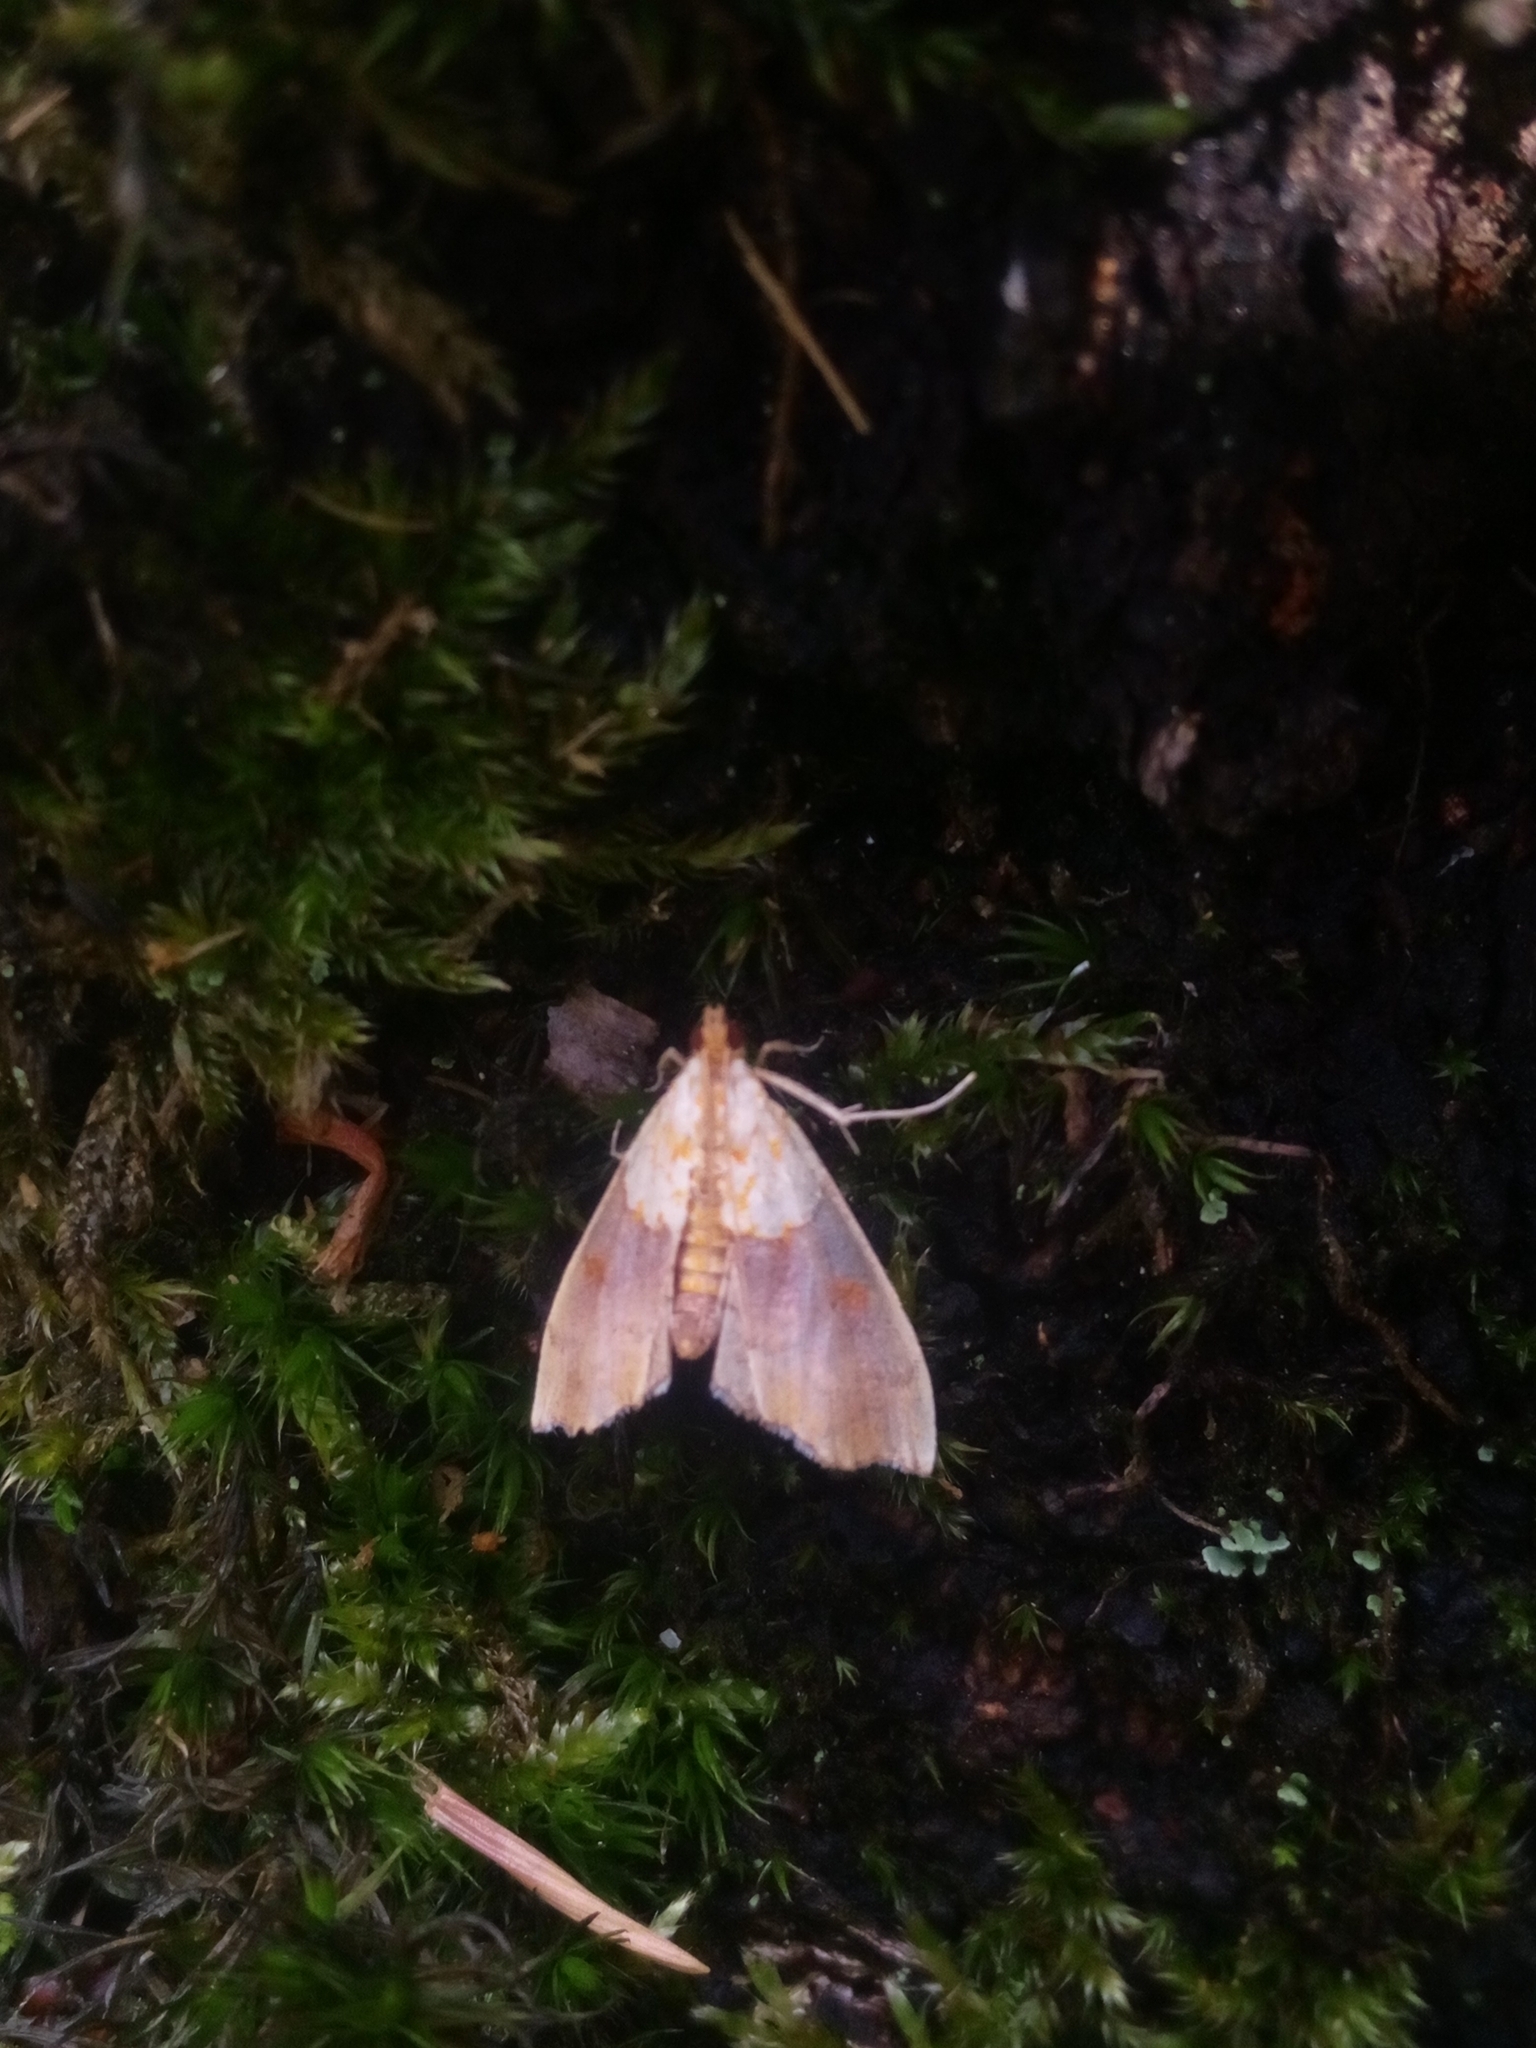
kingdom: Animalia
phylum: Arthropoda
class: Insecta
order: Lepidoptera
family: Crambidae
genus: Agrotera
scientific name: Agrotera nemoralis
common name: Beautiful pearl
